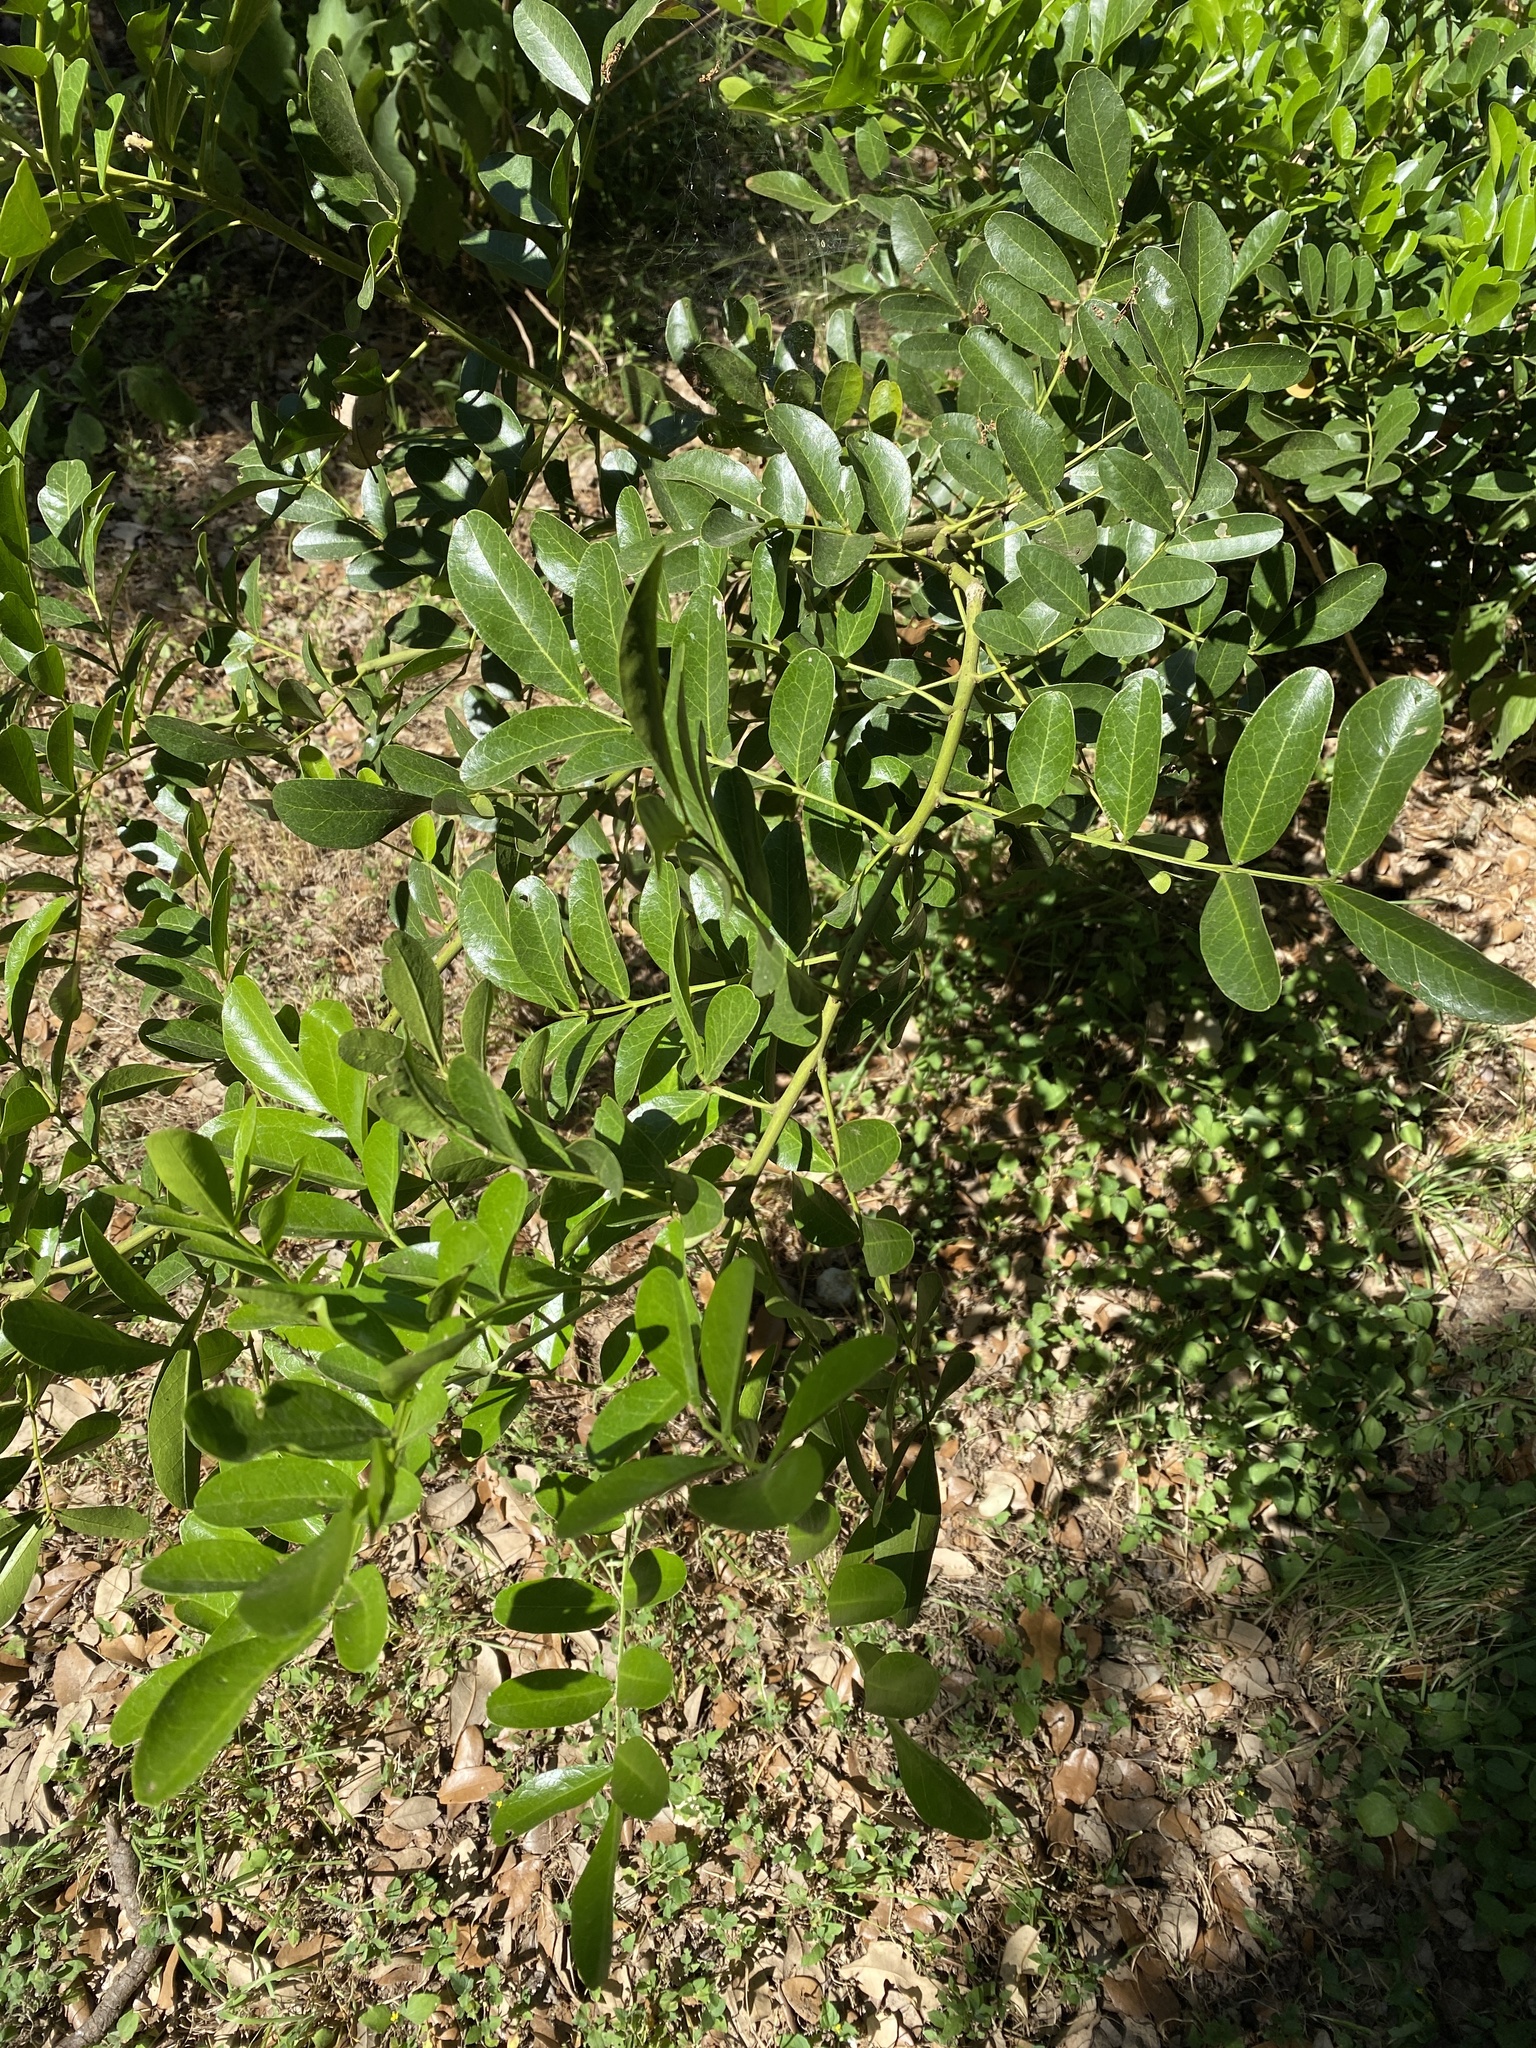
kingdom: Plantae
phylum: Tracheophyta
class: Magnoliopsida
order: Fabales
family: Fabaceae
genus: Dermatophyllum
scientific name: Dermatophyllum secundiflorum
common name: Texas-mountain-laurel
